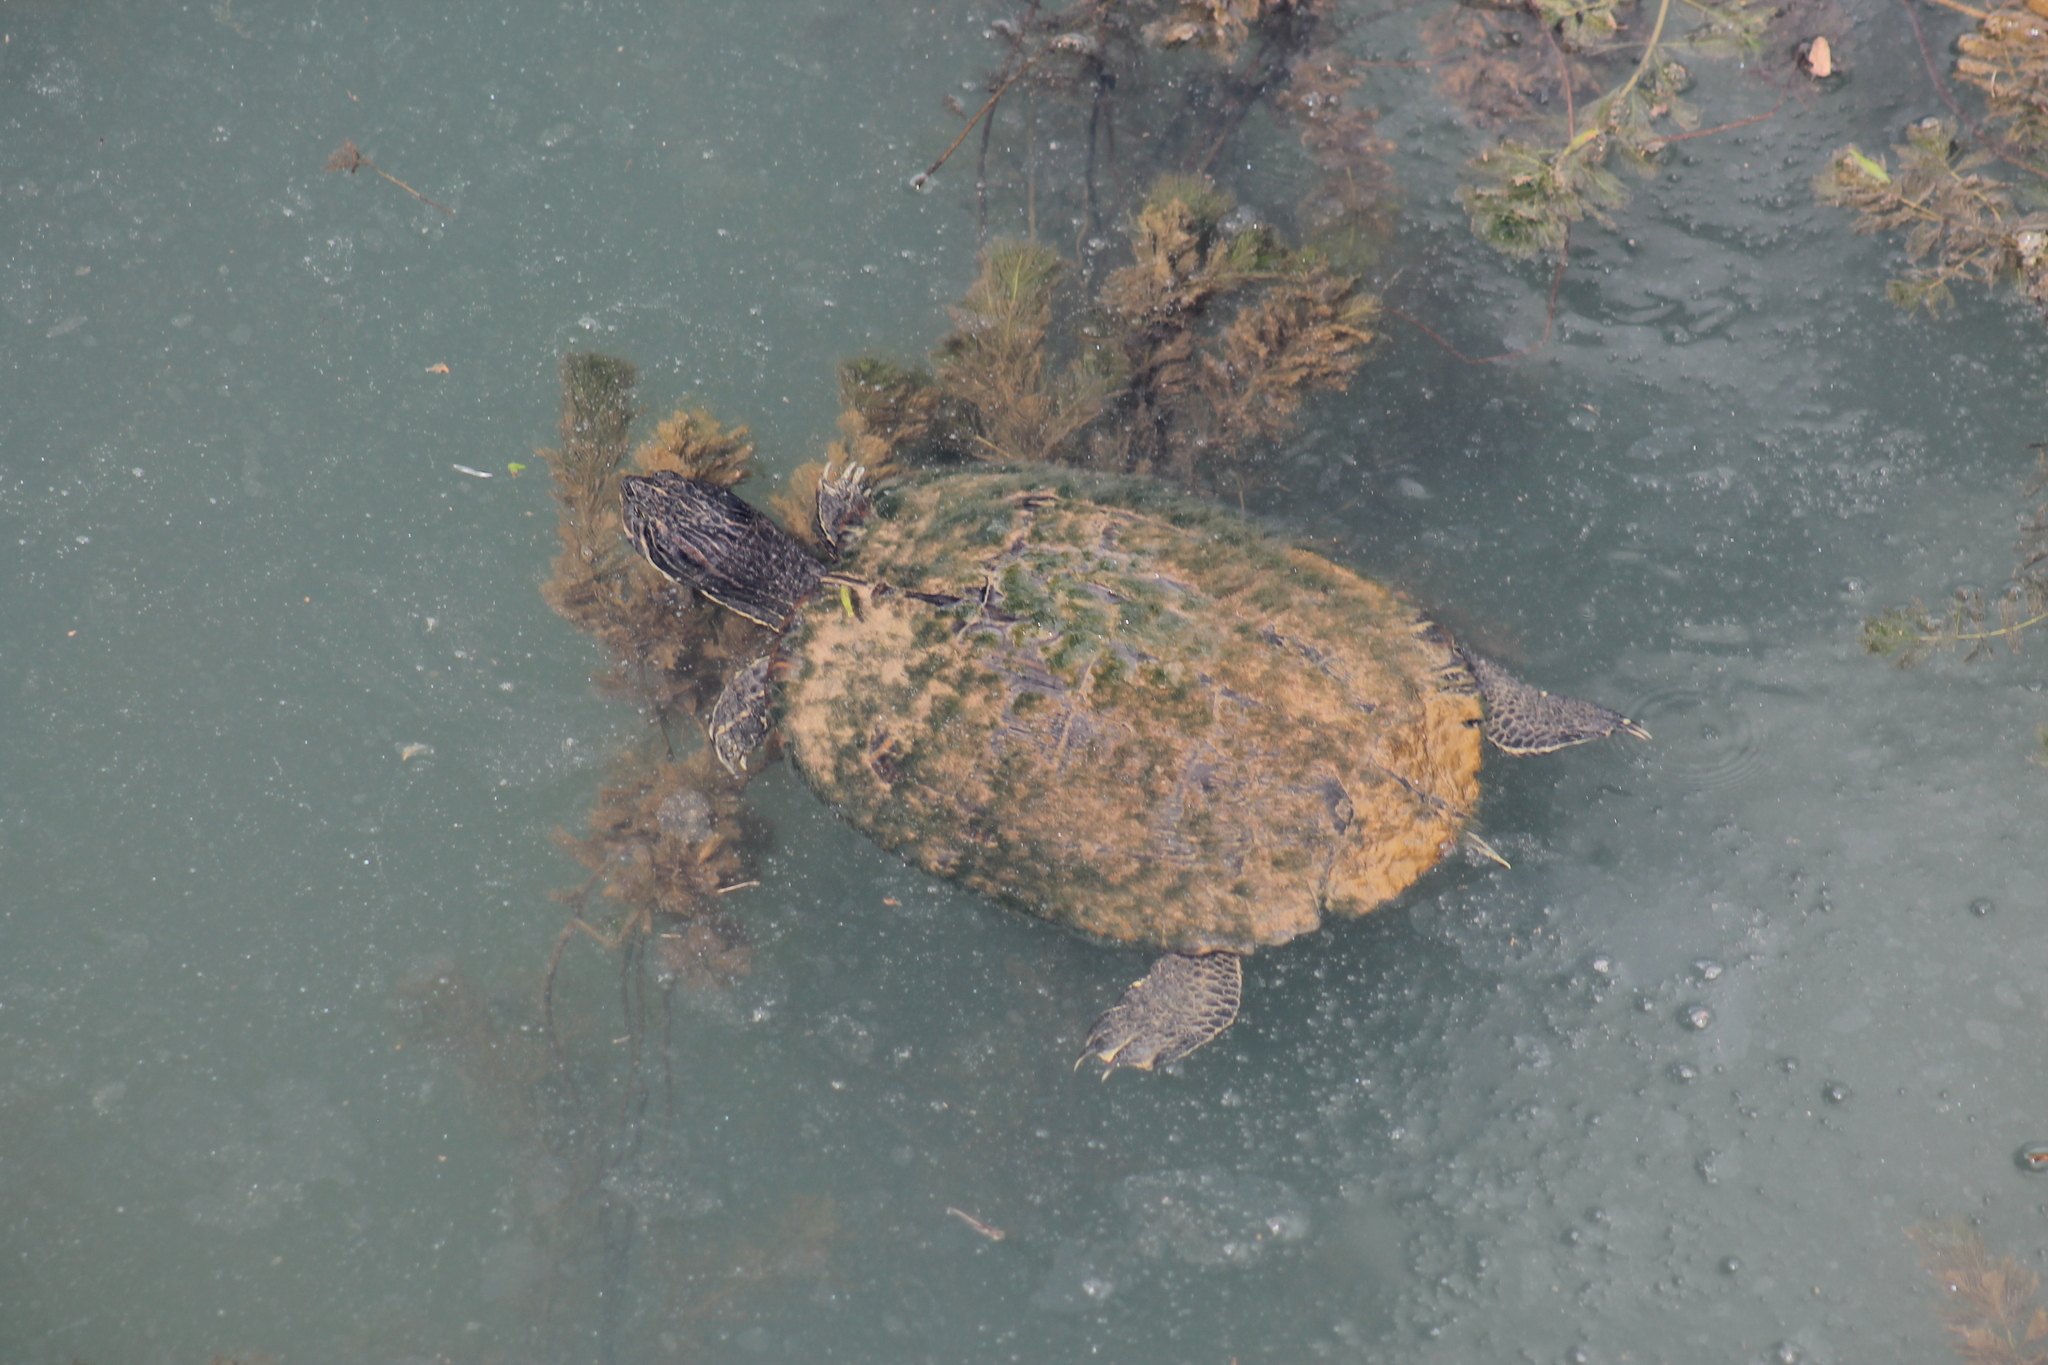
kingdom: Animalia
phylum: Chordata
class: Testudines
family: Emydidae
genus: Trachemys
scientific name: Trachemys scripta
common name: Slider
